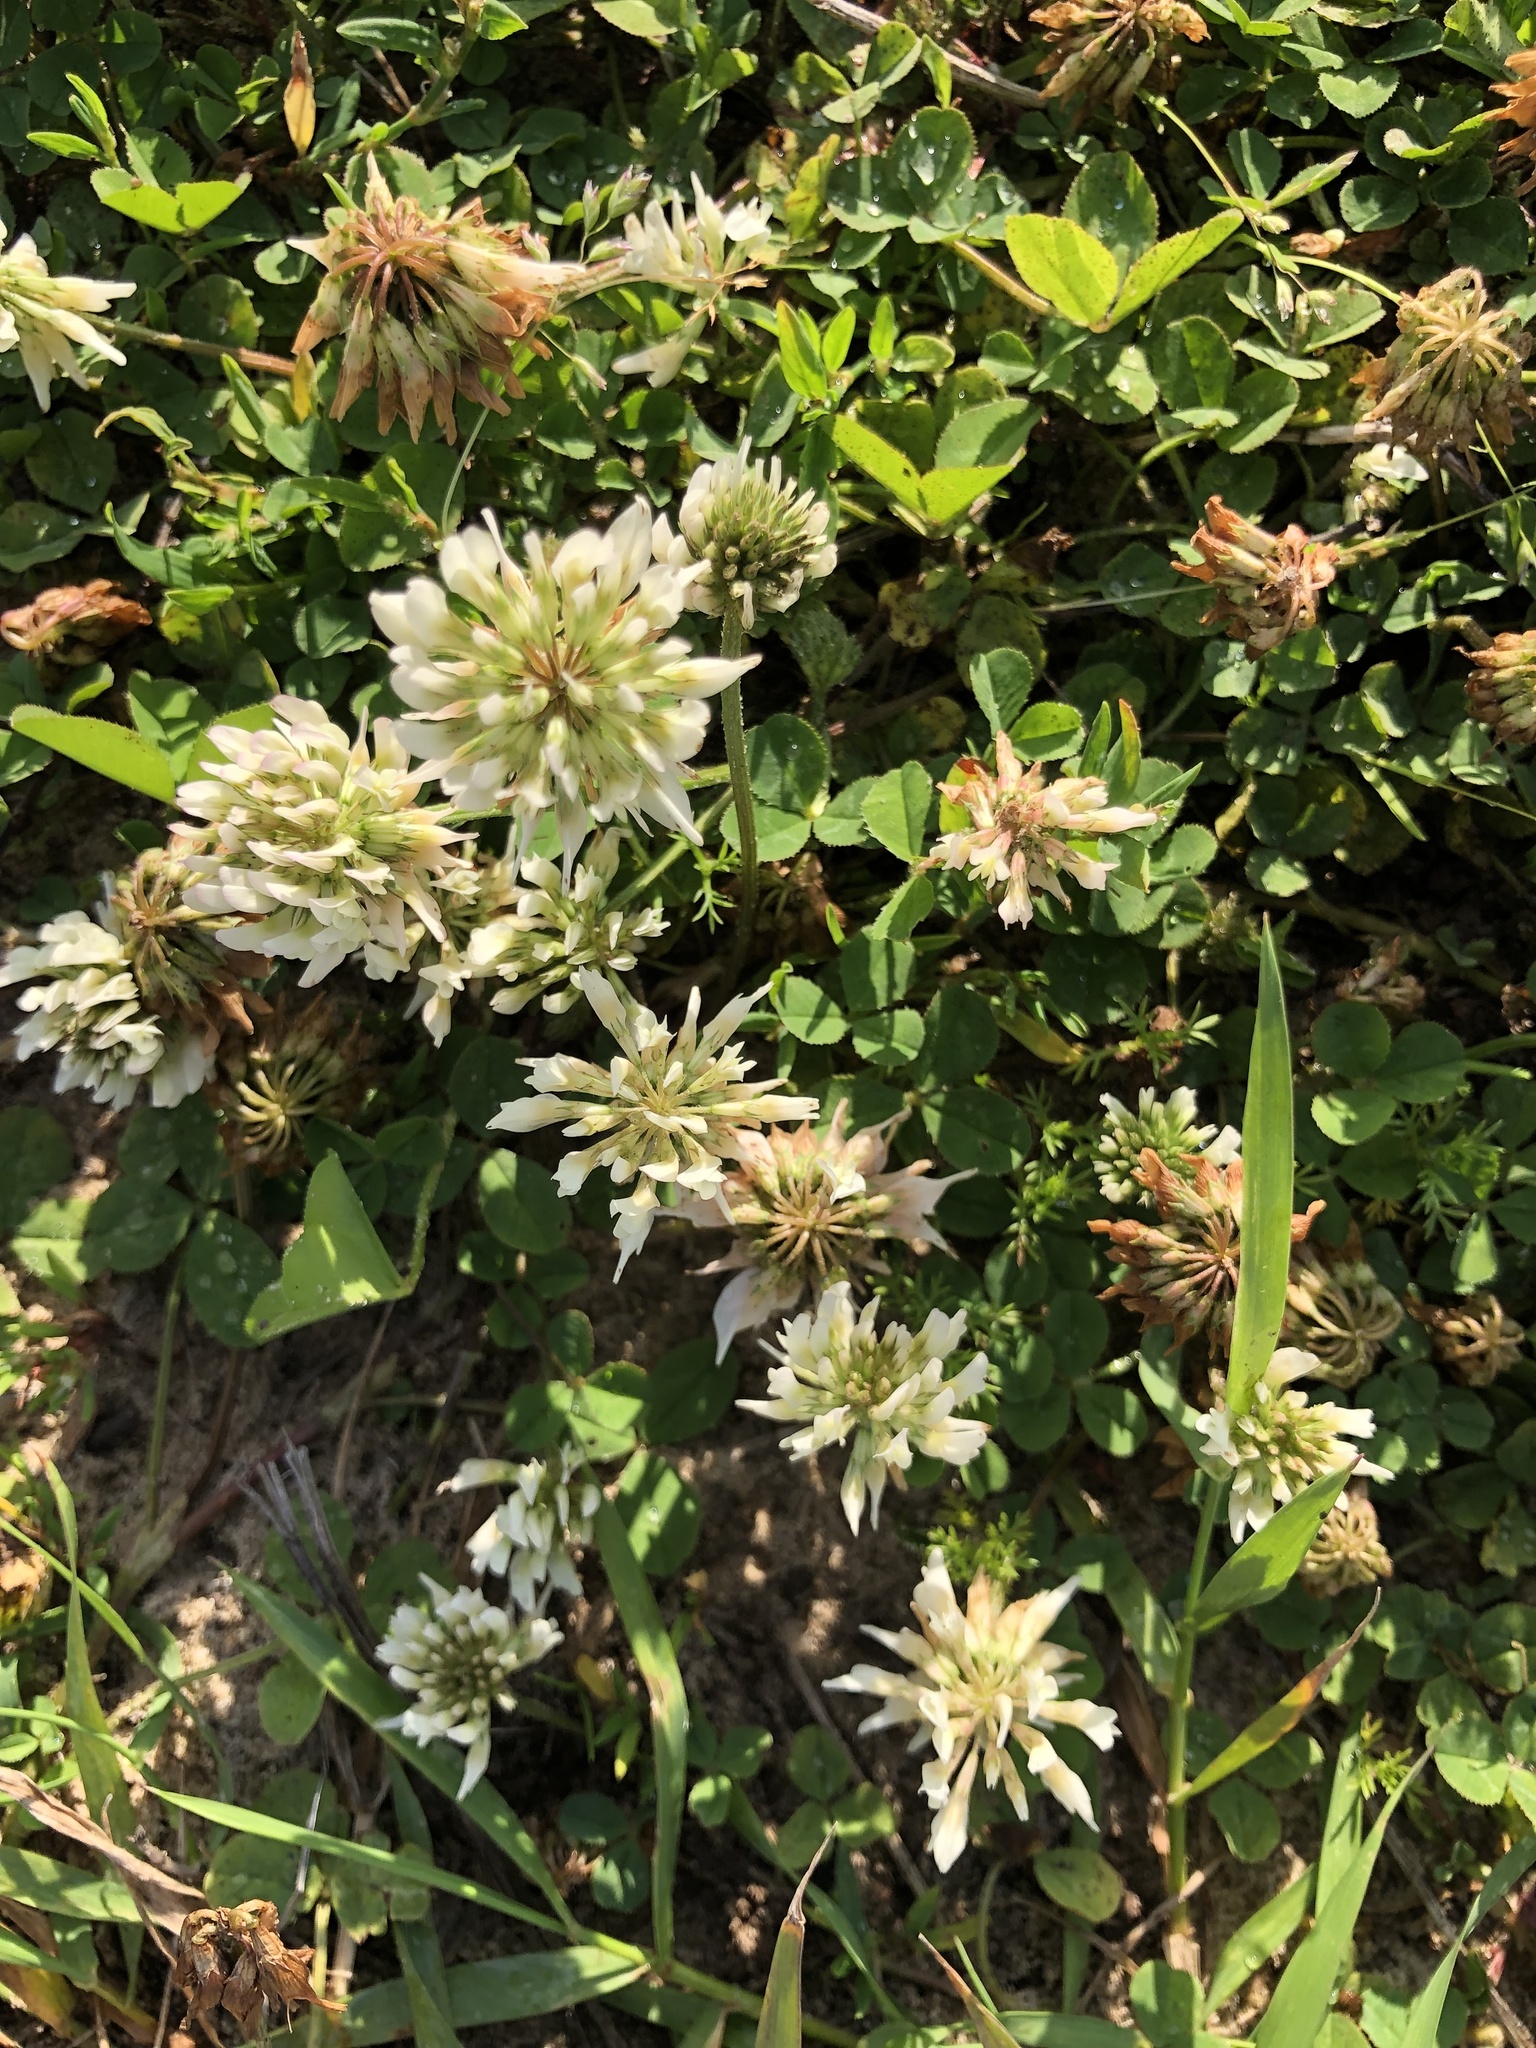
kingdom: Plantae
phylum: Tracheophyta
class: Magnoliopsida
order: Fabales
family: Fabaceae
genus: Trifolium
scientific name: Trifolium repens
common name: White clover
